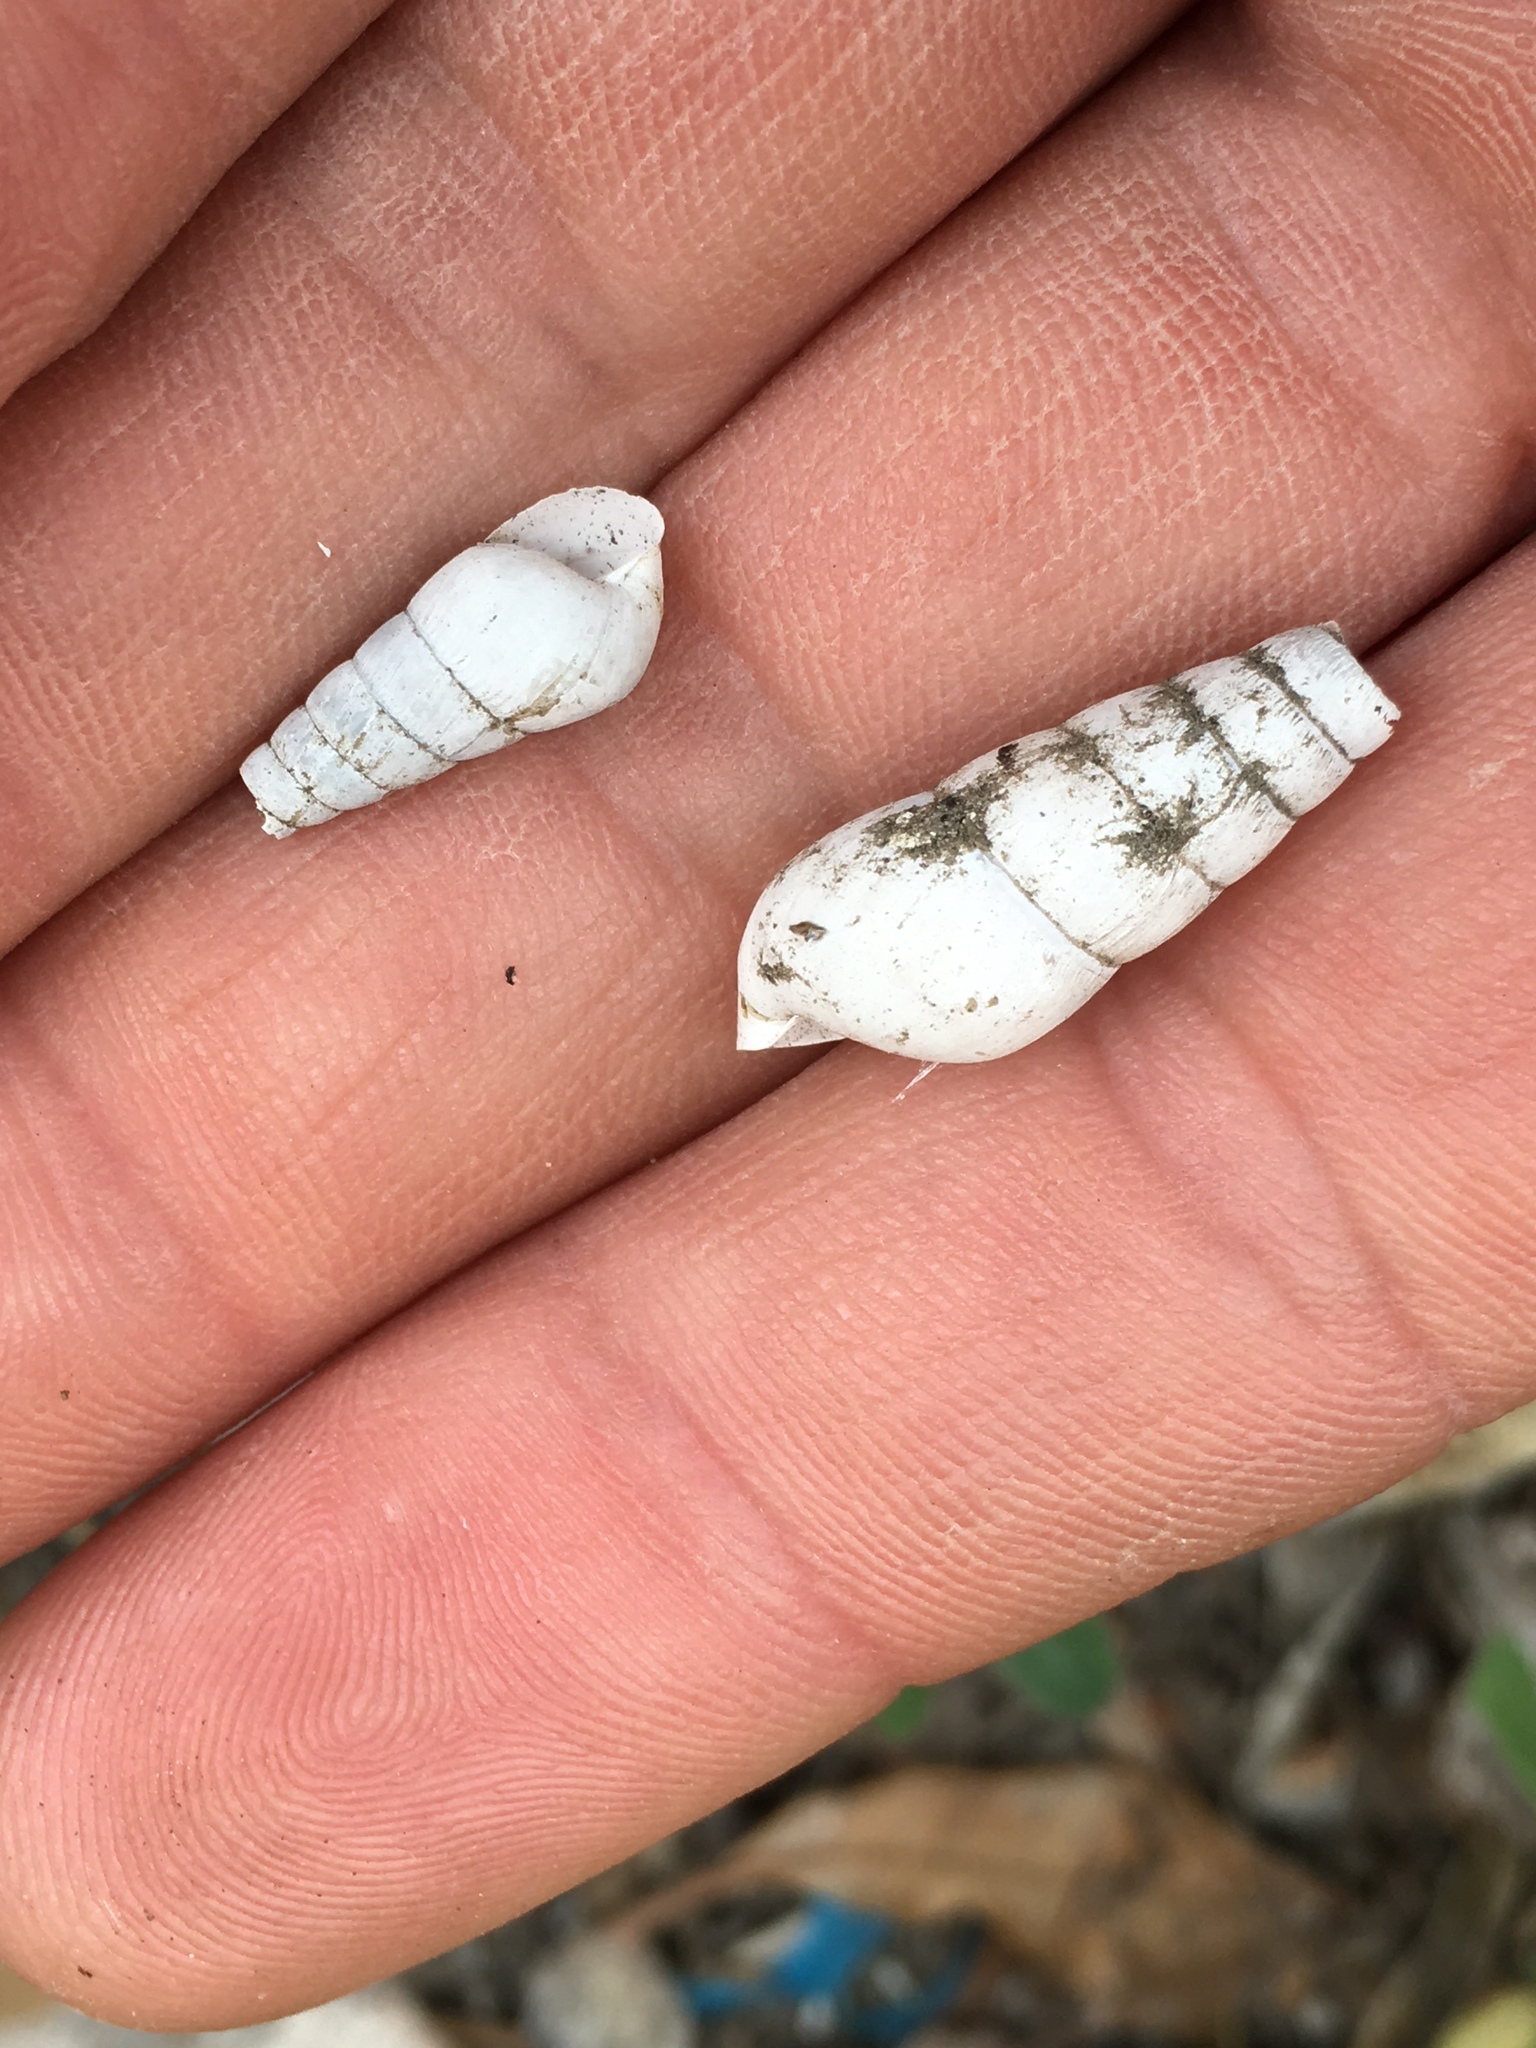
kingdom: Animalia
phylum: Mollusca
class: Gastropoda
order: Stylommatophora
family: Achatinidae
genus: Rumina
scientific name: Rumina decollata
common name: Decollate snail
